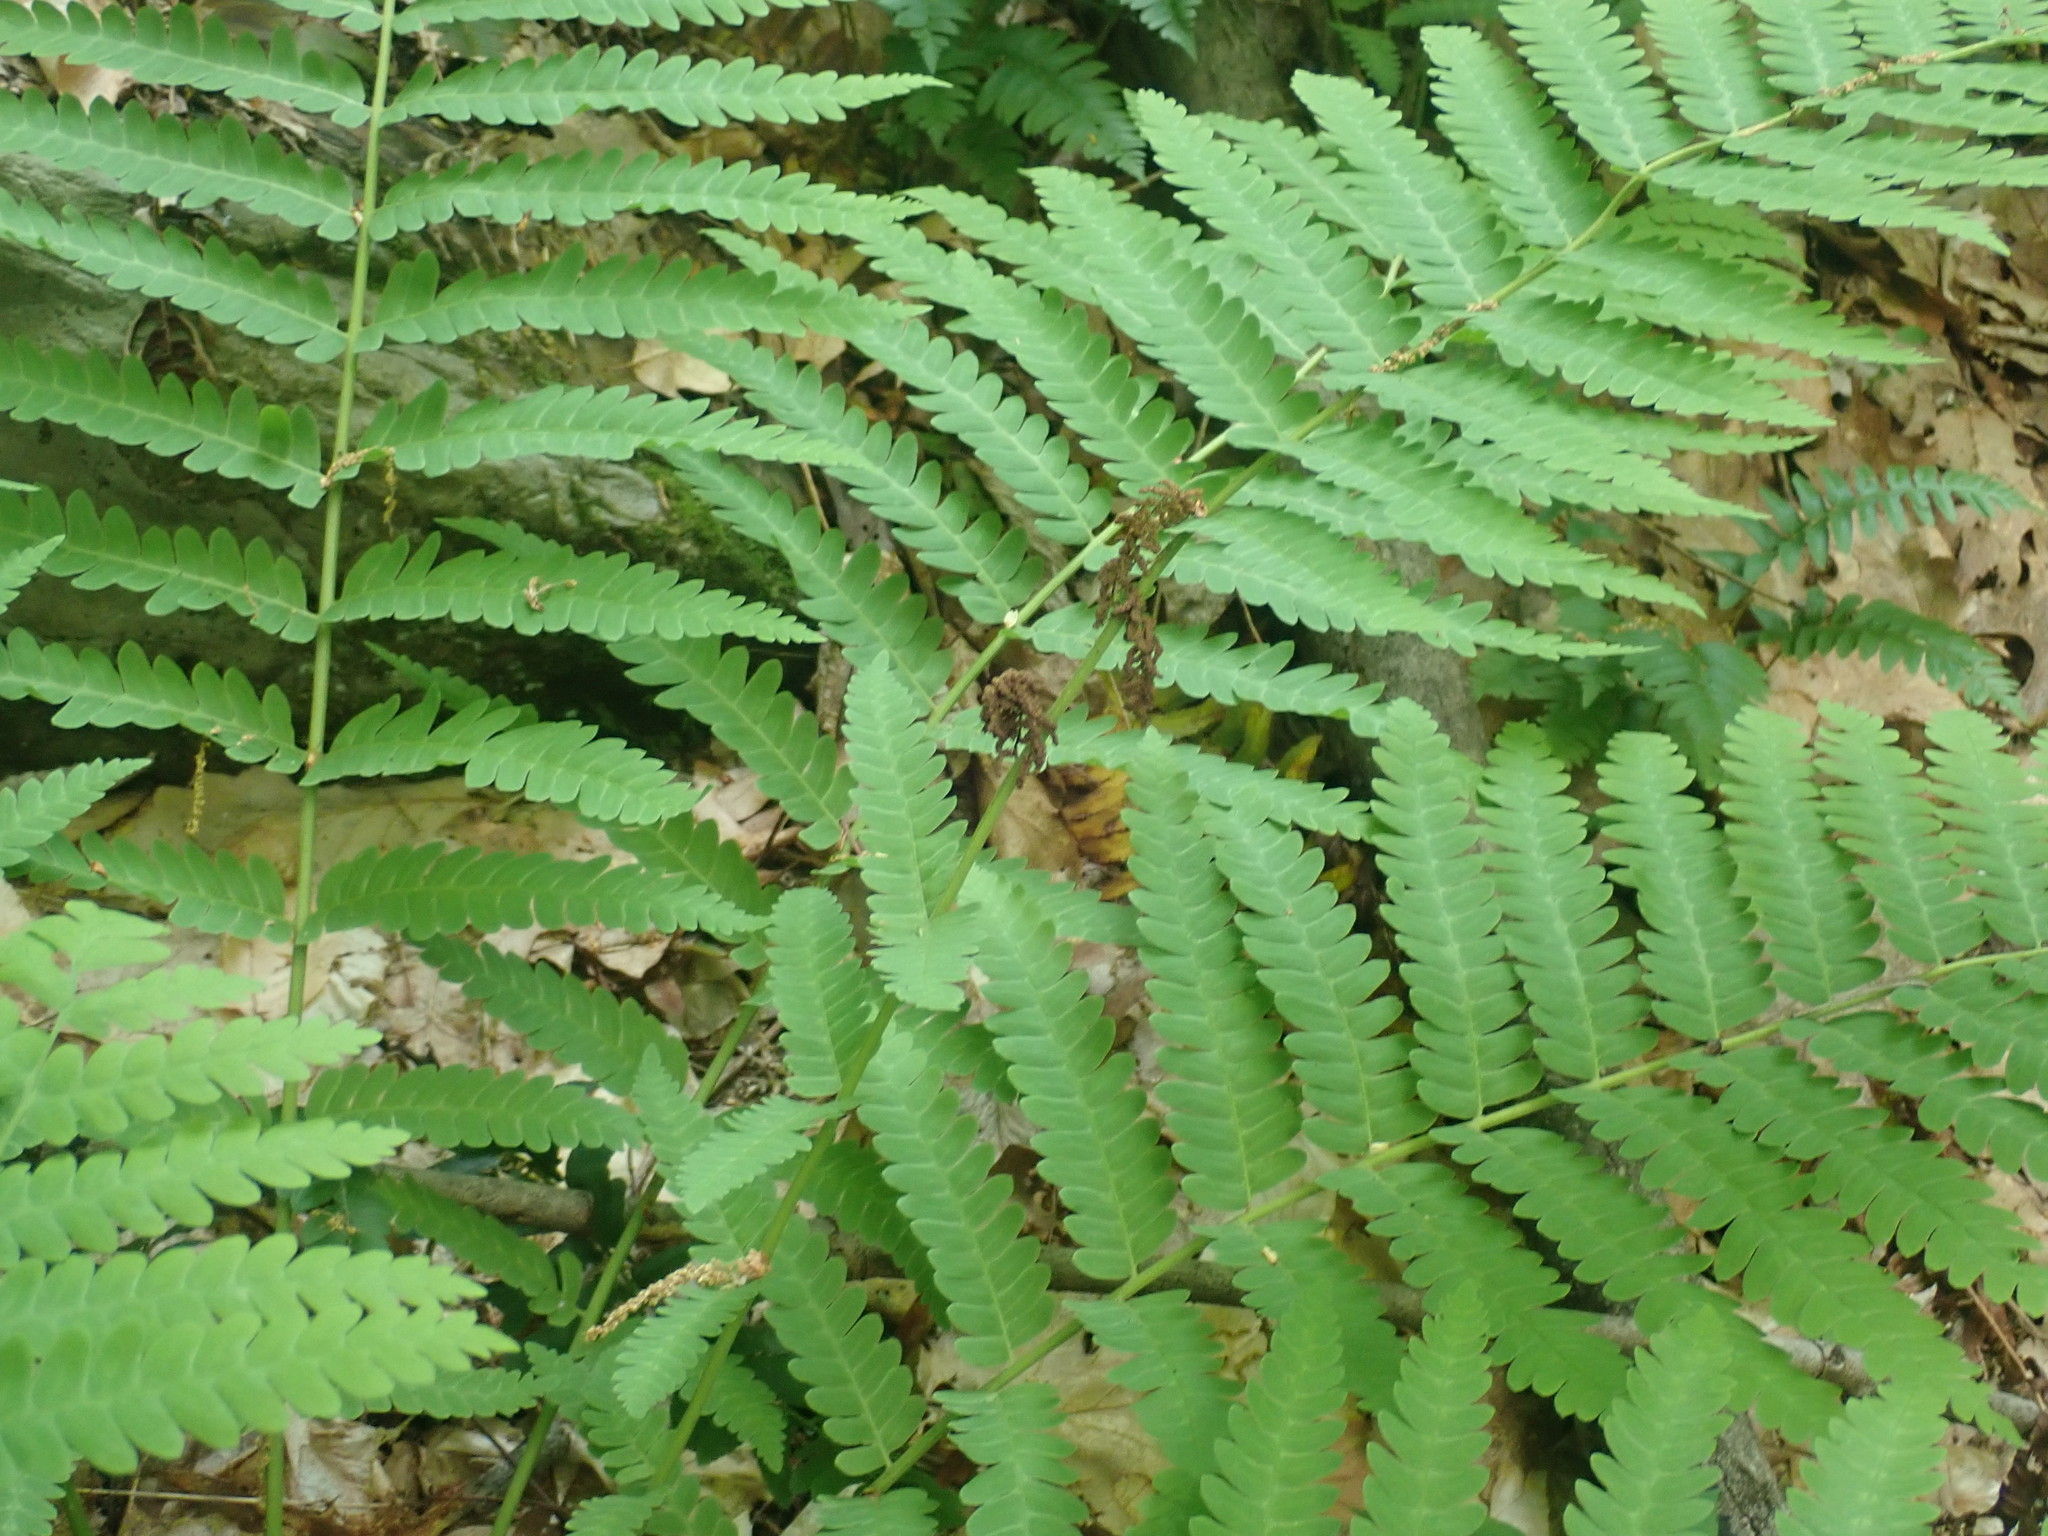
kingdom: Plantae
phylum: Tracheophyta
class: Polypodiopsida
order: Osmundales
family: Osmundaceae
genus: Claytosmunda
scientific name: Claytosmunda claytoniana
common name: Clayton's fern
